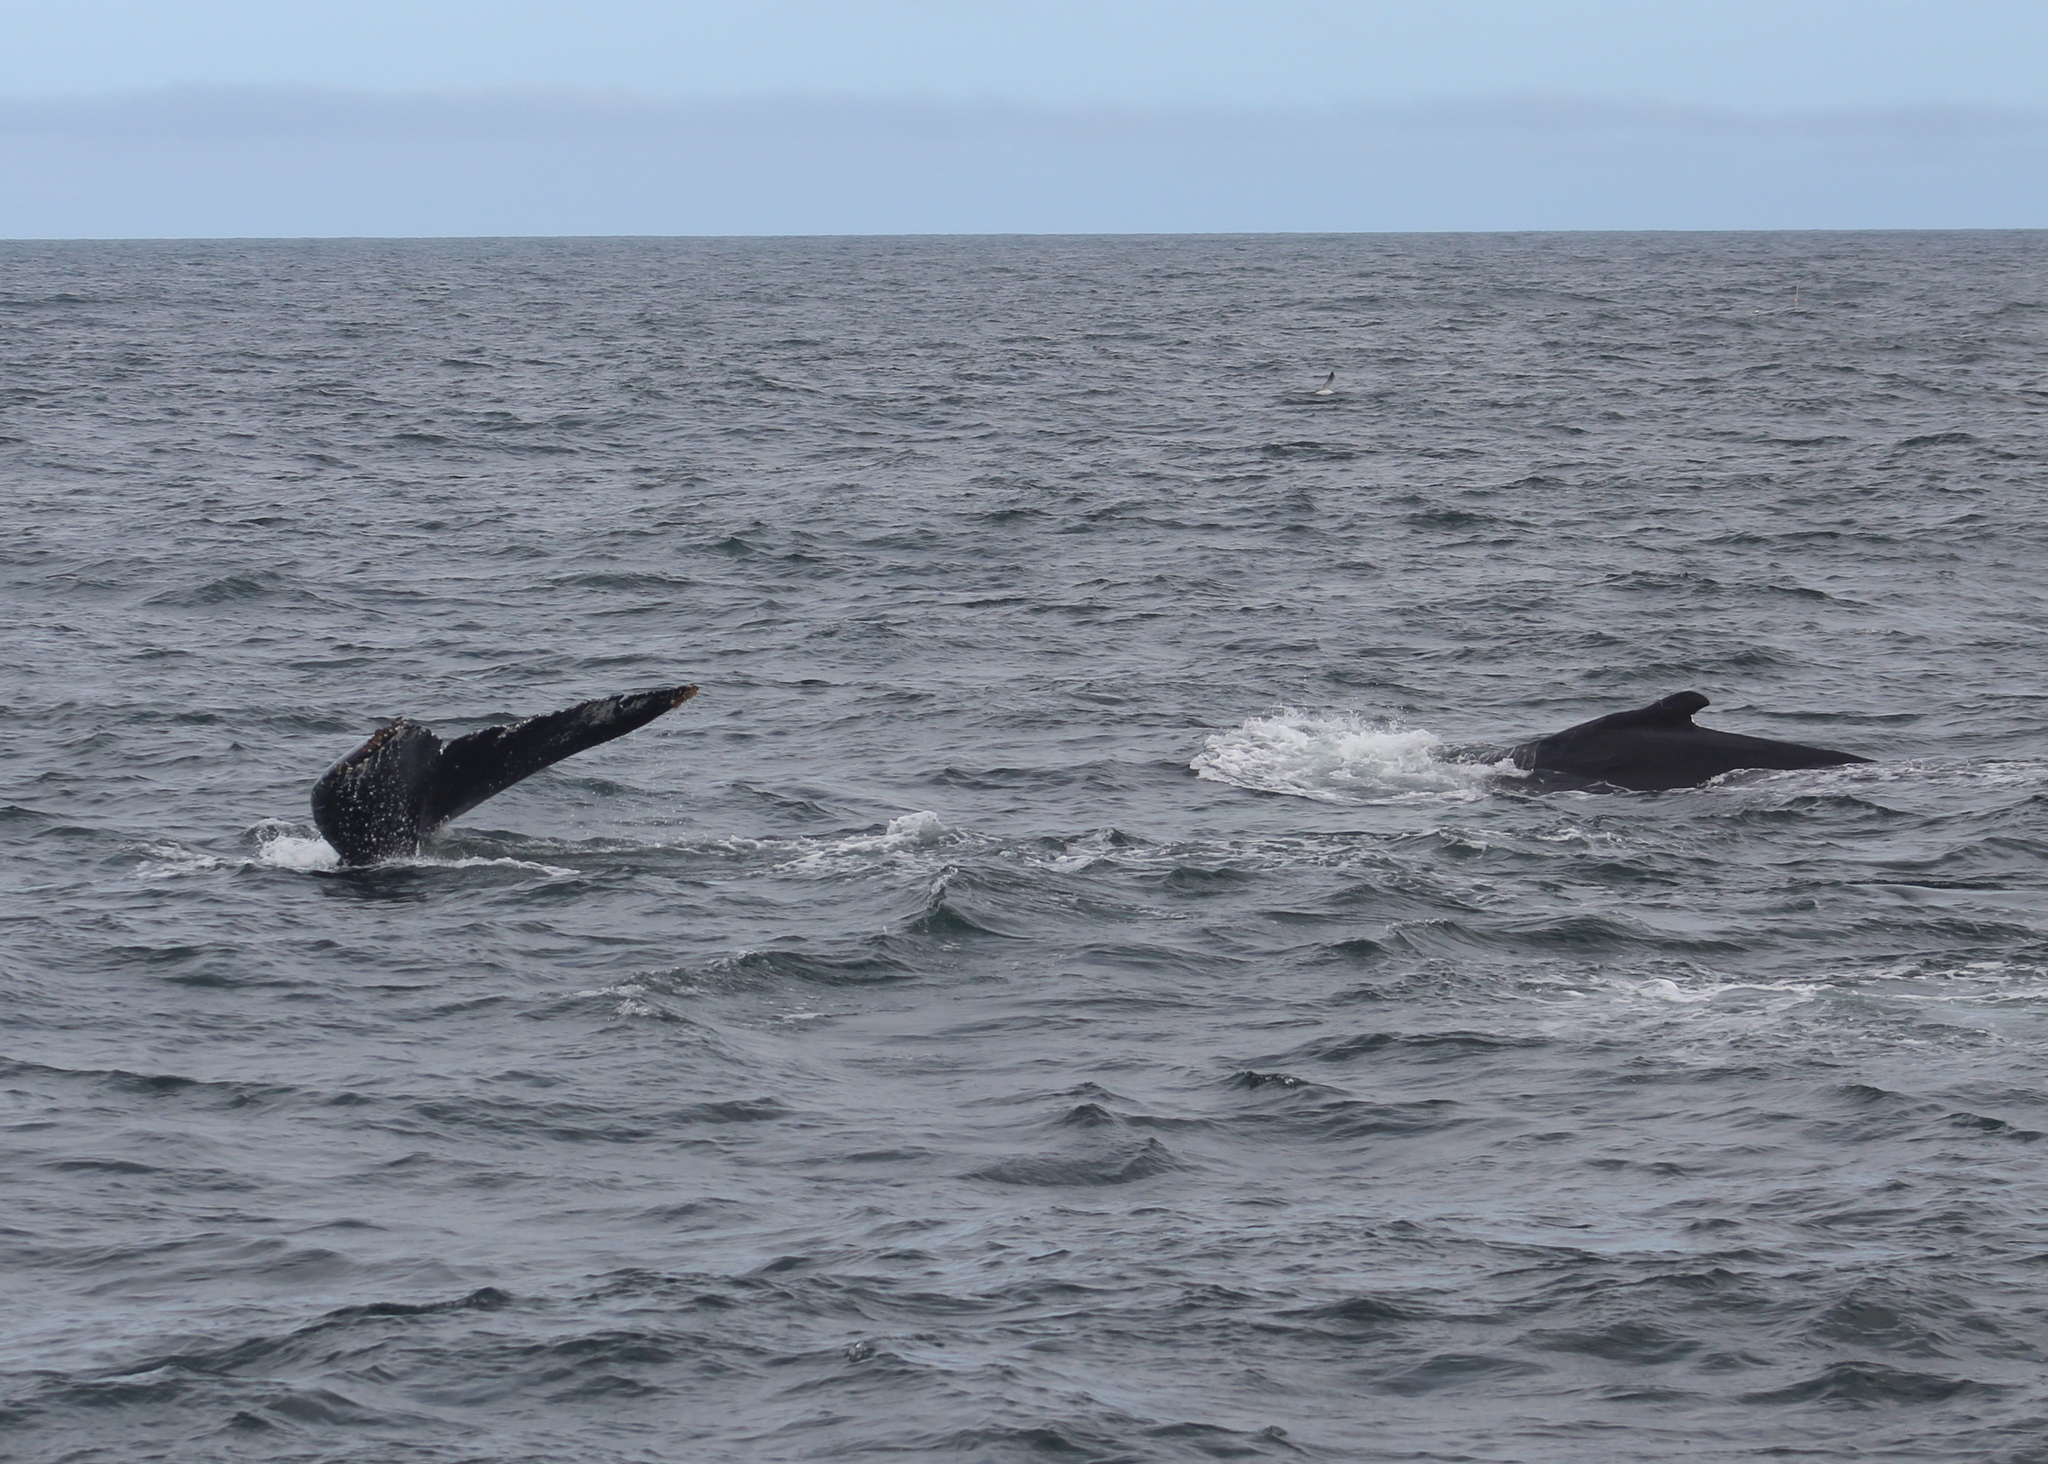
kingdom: Animalia
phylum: Chordata
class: Mammalia
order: Cetacea
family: Balaenopteridae
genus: Megaptera
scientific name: Megaptera novaeangliae
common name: Humpback whale
